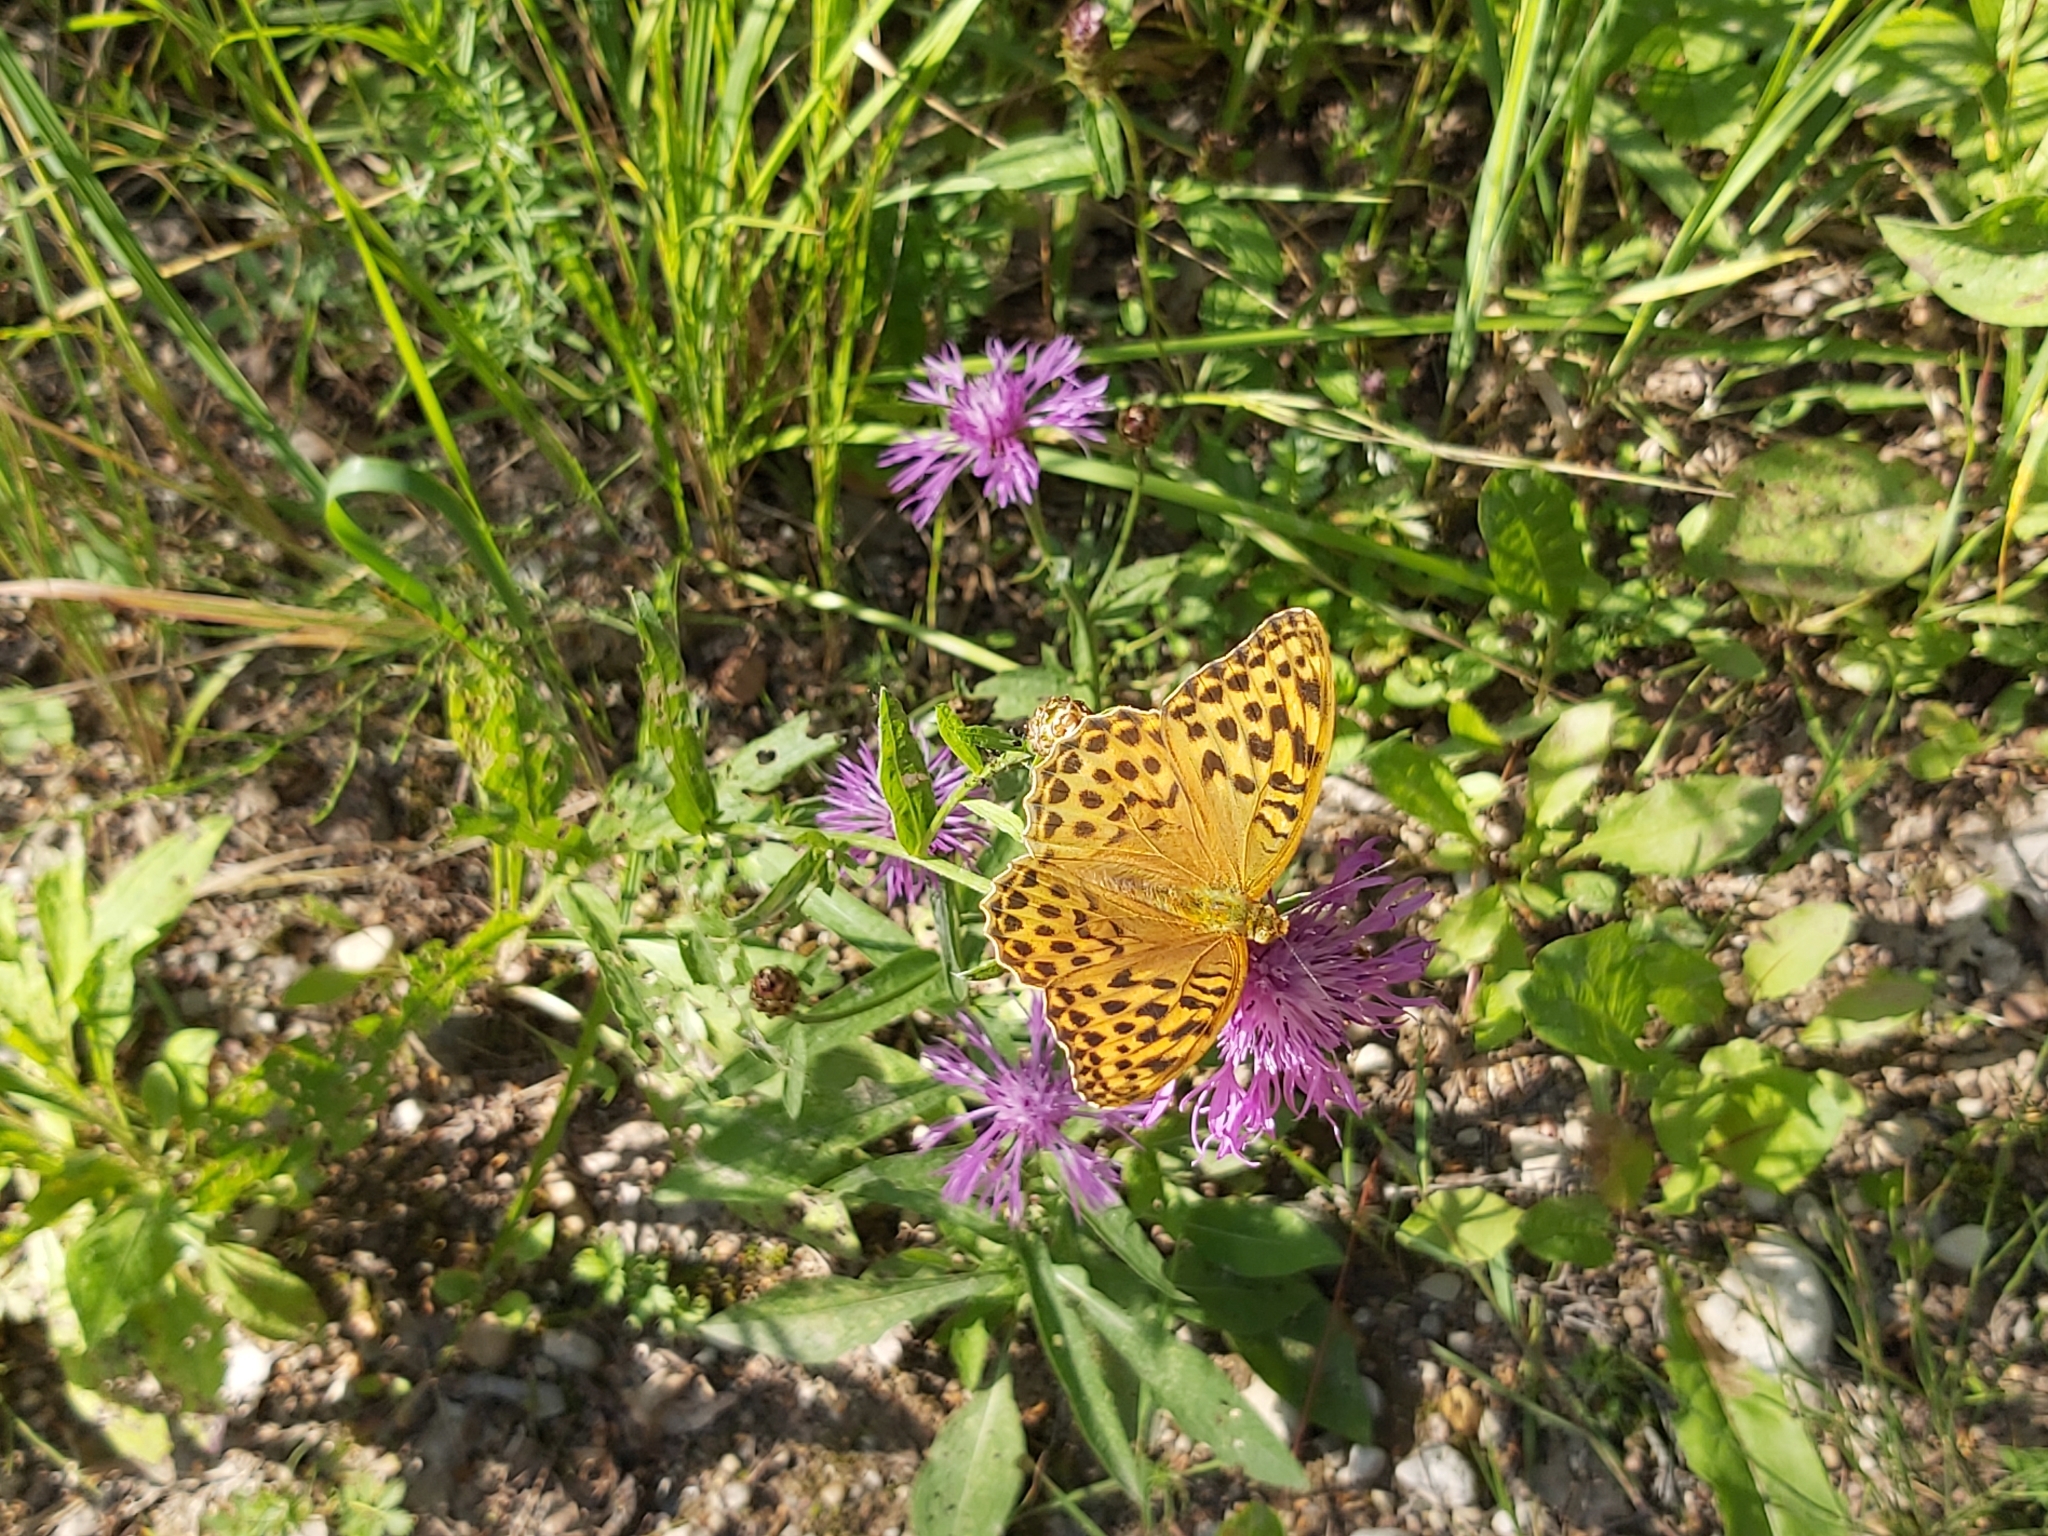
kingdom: Animalia
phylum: Arthropoda
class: Insecta
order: Lepidoptera
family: Nymphalidae
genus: Argynnis
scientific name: Argynnis paphia
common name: Silver-washed fritillary
